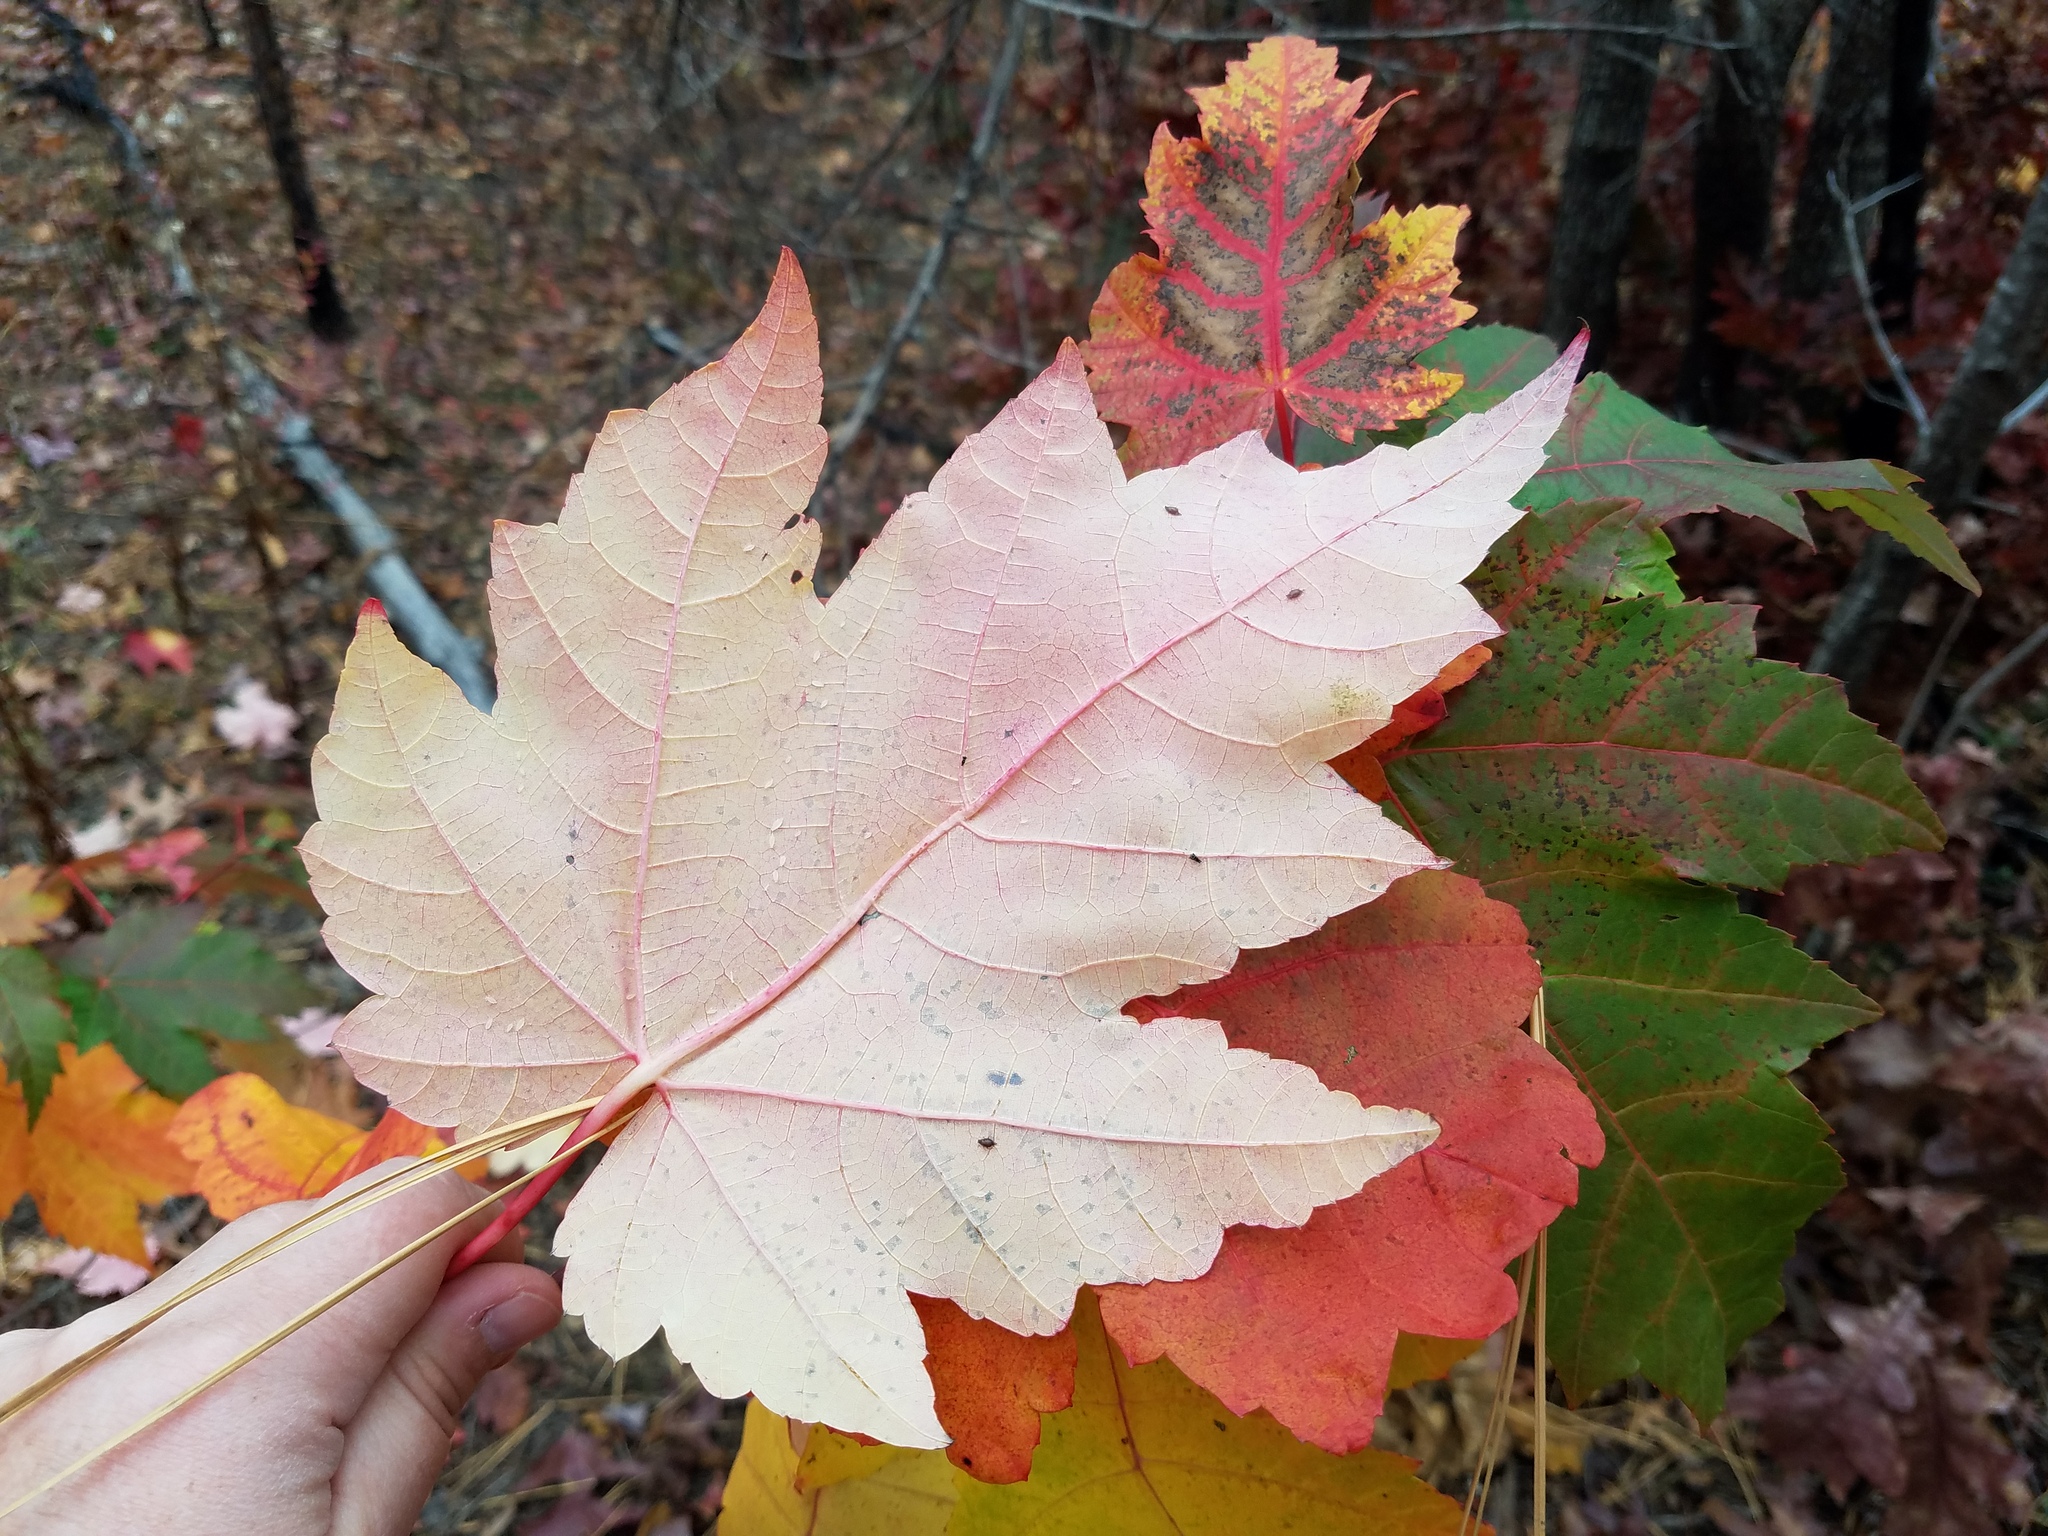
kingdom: Plantae
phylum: Tracheophyta
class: Magnoliopsida
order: Sapindales
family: Sapindaceae
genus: Acer
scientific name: Acer rubrum
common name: Red maple
